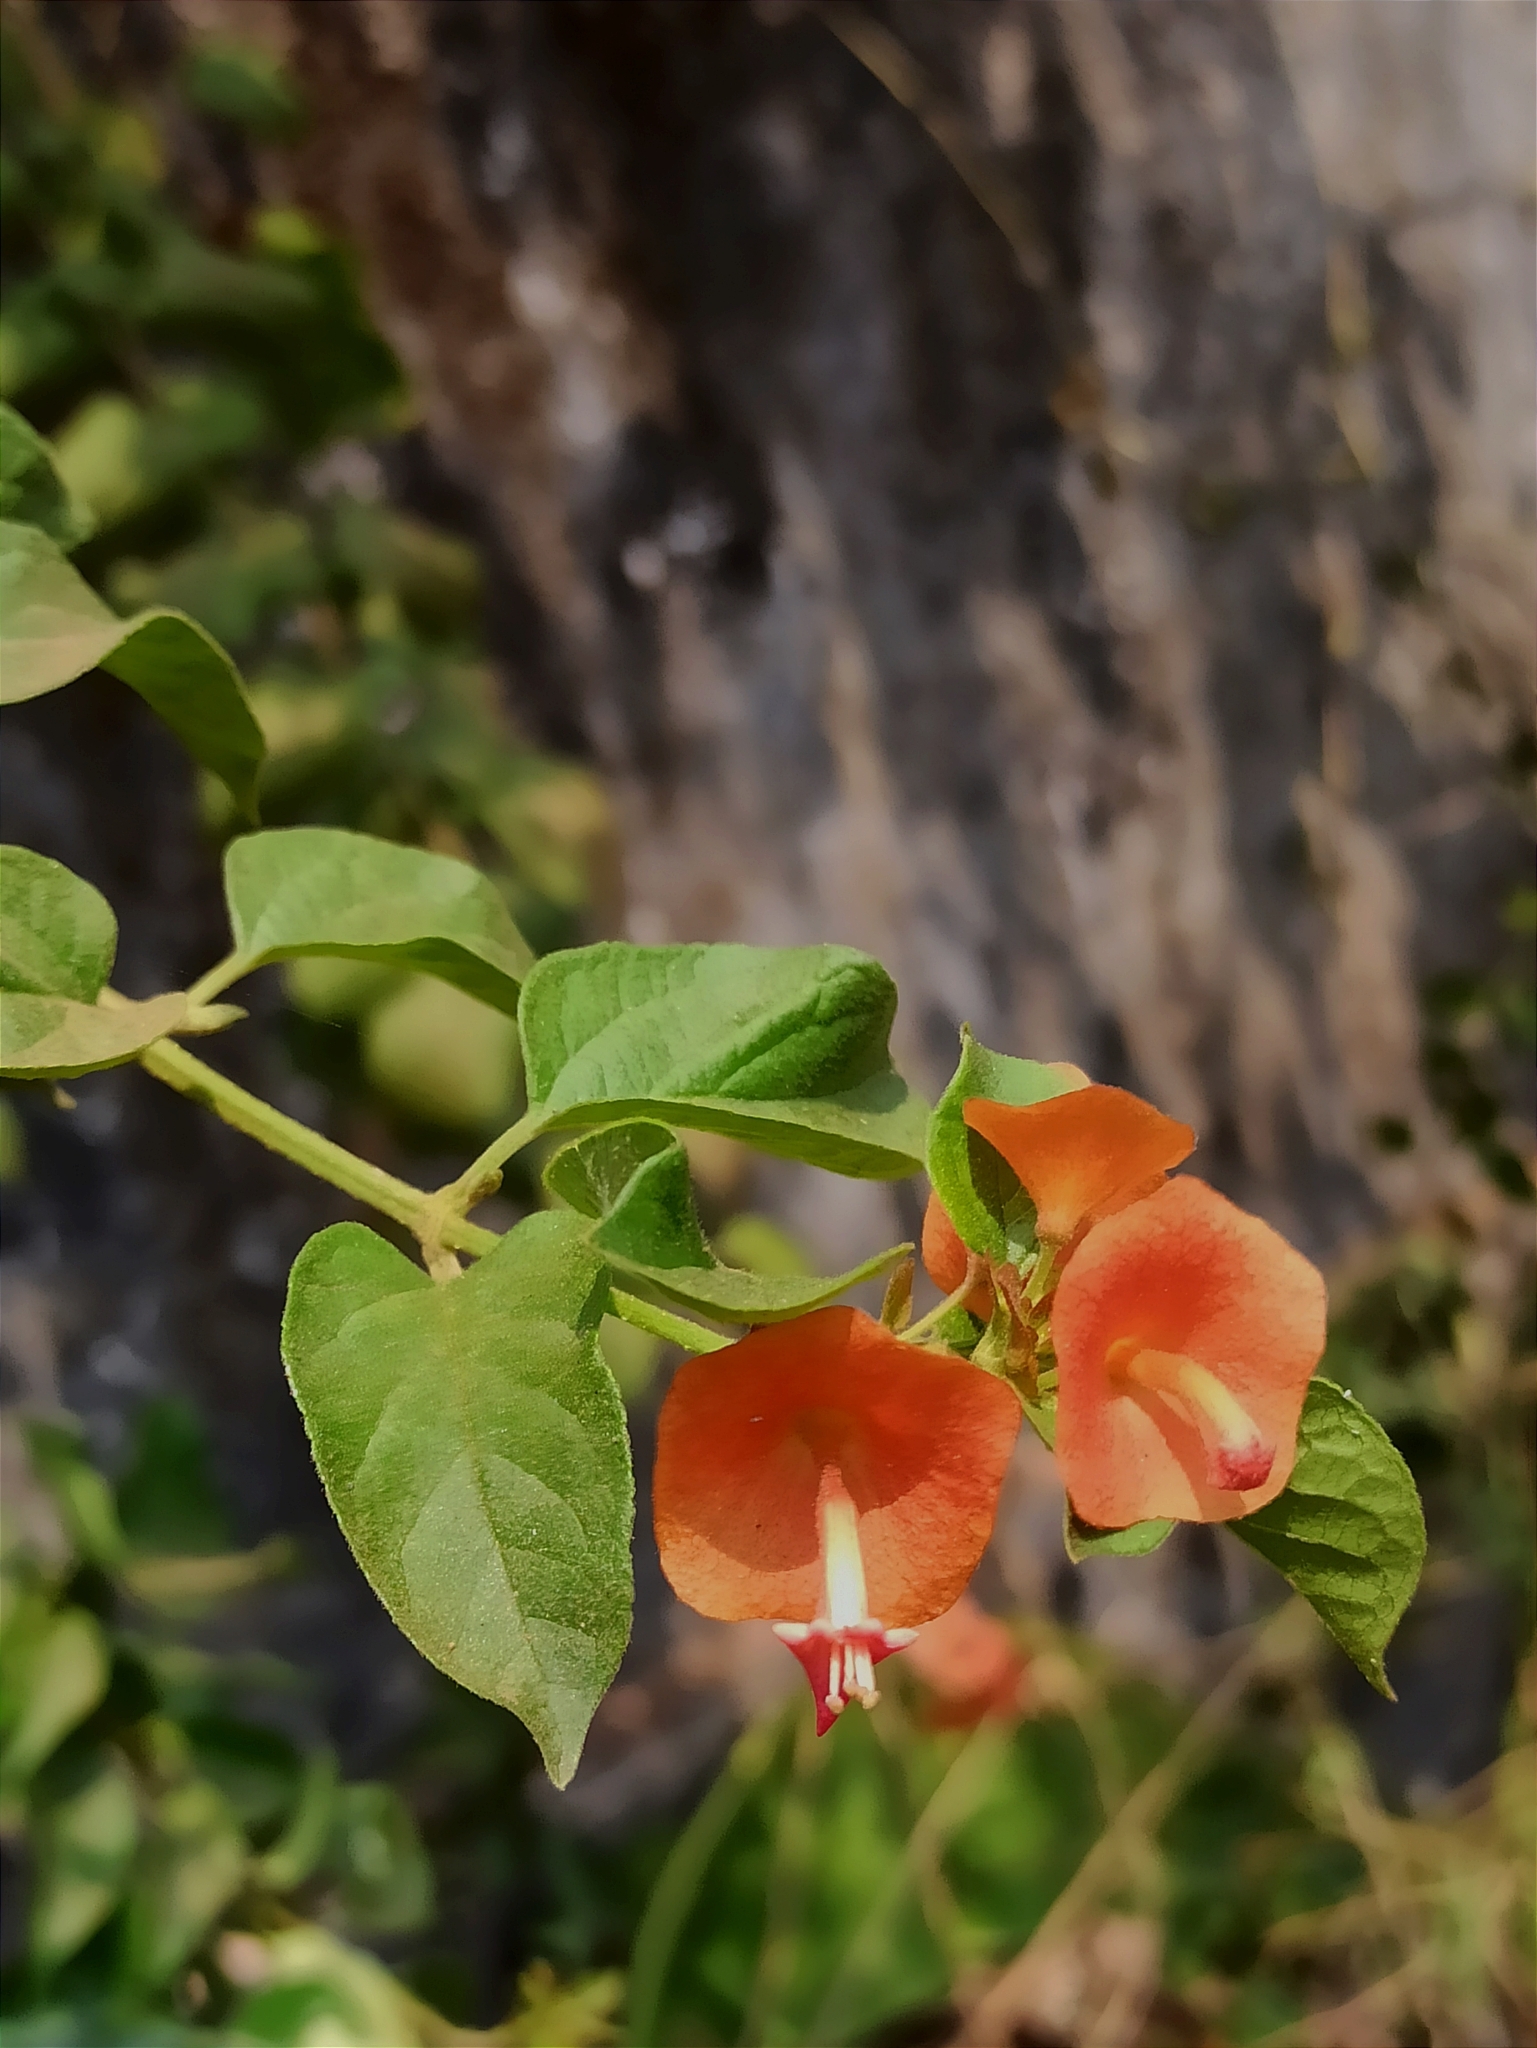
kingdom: Plantae
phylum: Tracheophyta
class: Magnoliopsida
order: Lamiales
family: Lamiaceae
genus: Holmskioldia
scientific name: Holmskioldia sanguinea
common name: Chinese hatplant
